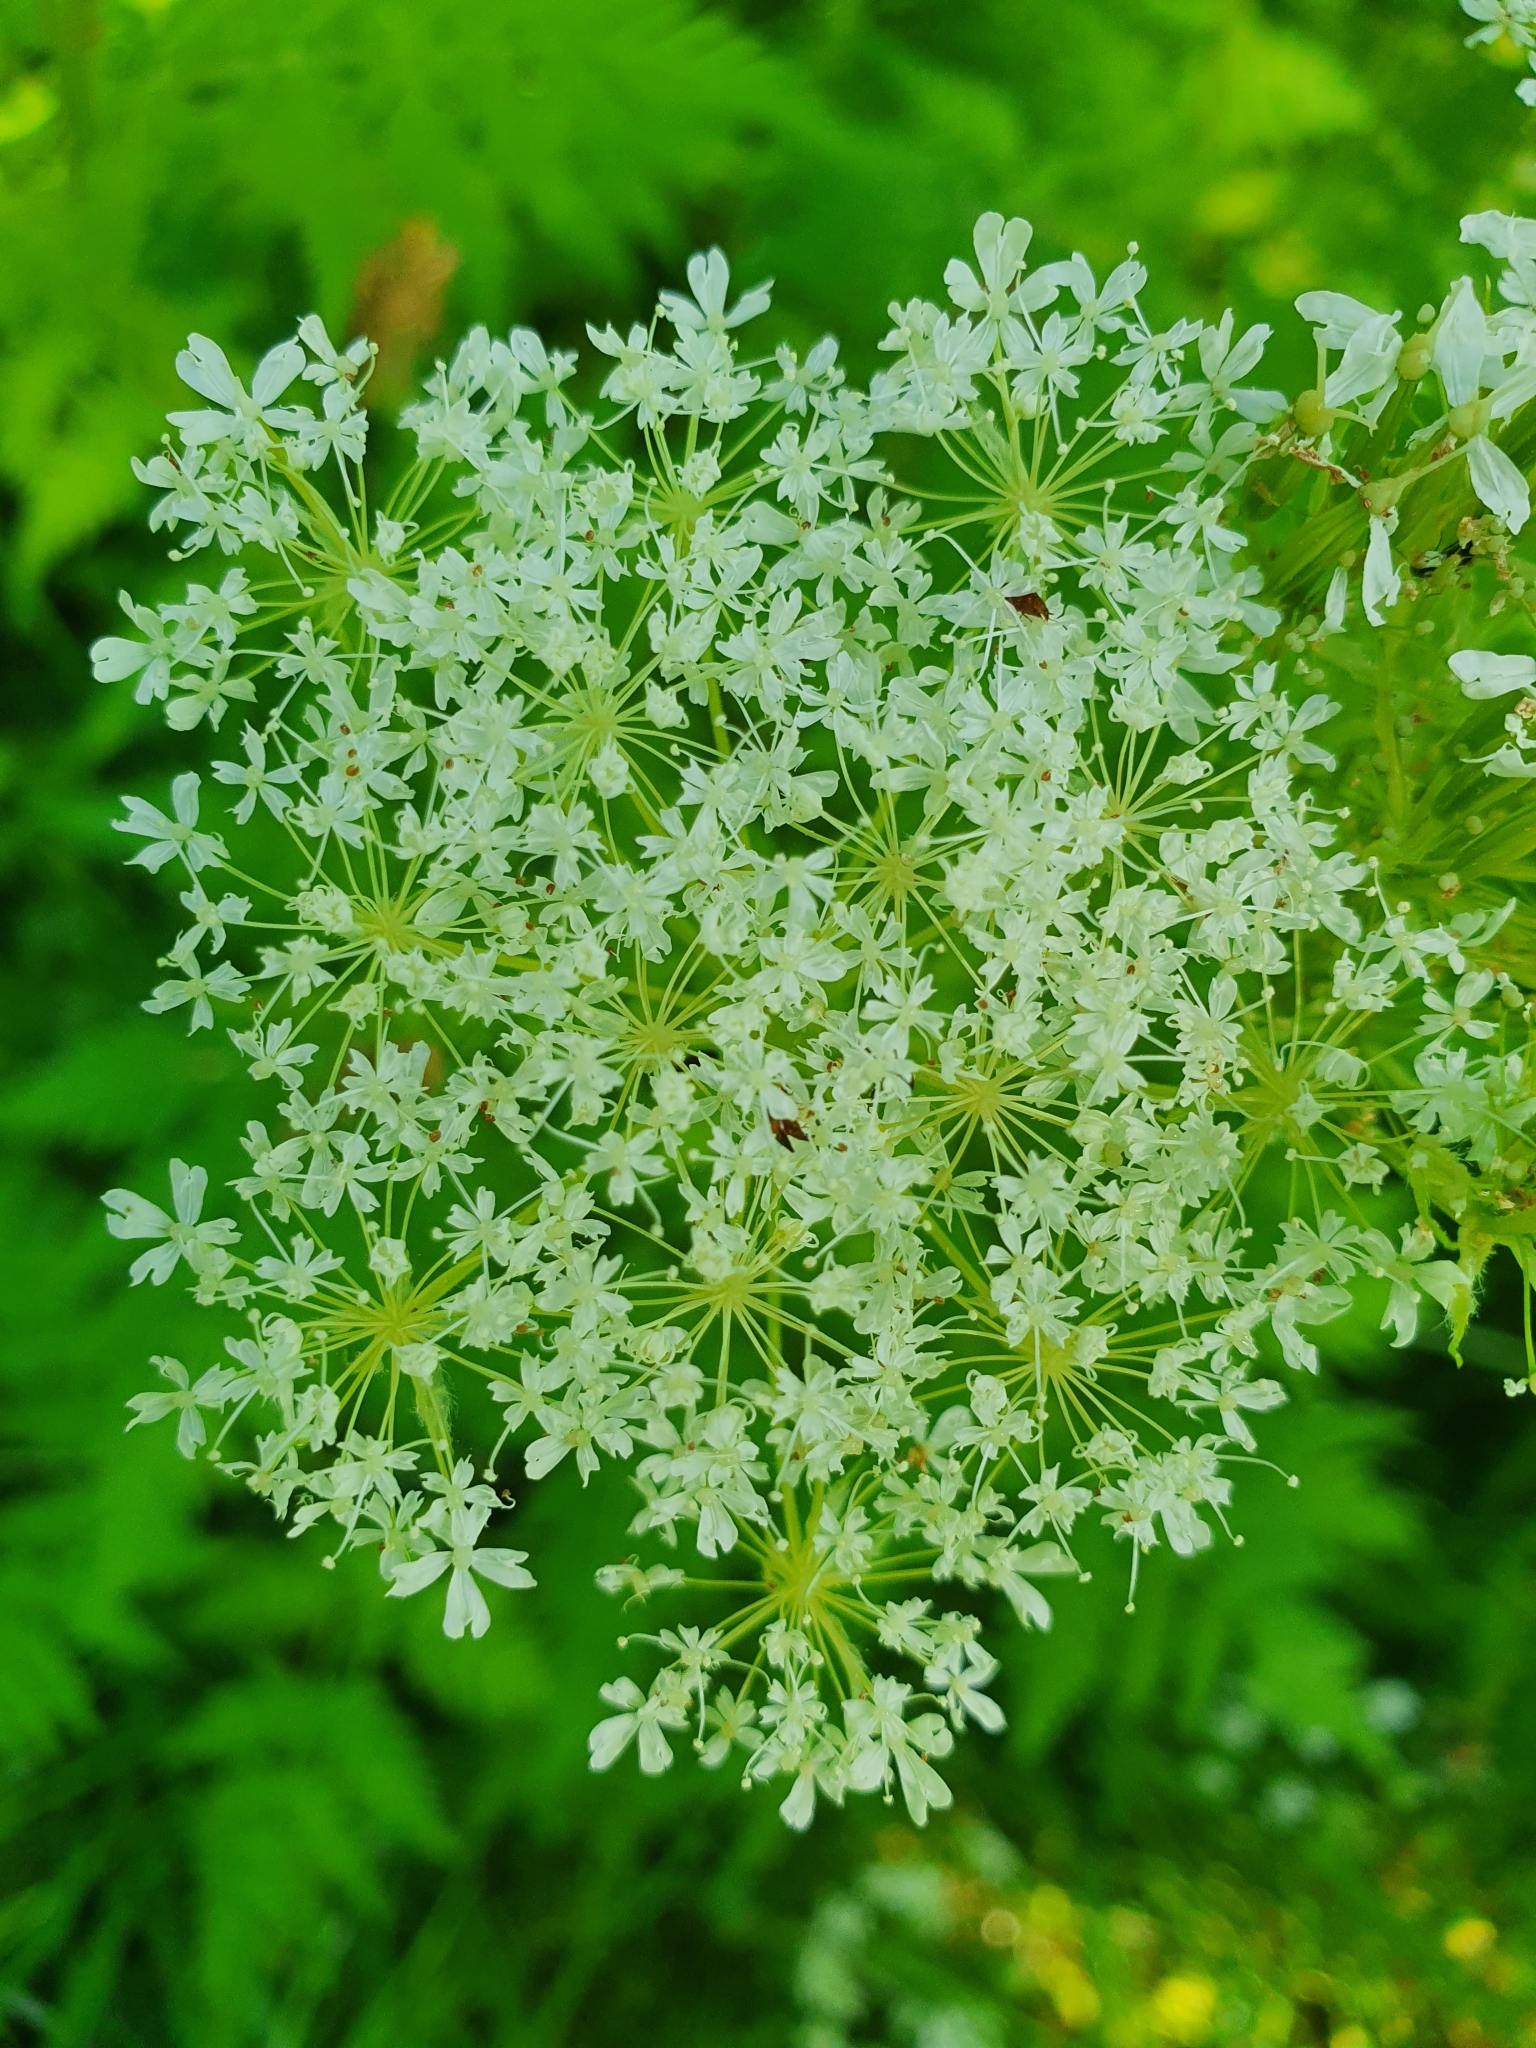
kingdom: Plantae
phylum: Tracheophyta
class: Magnoliopsida
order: Apiales
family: Apiaceae
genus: Myrrhis
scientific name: Myrrhis odorata
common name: Sweet cicely
